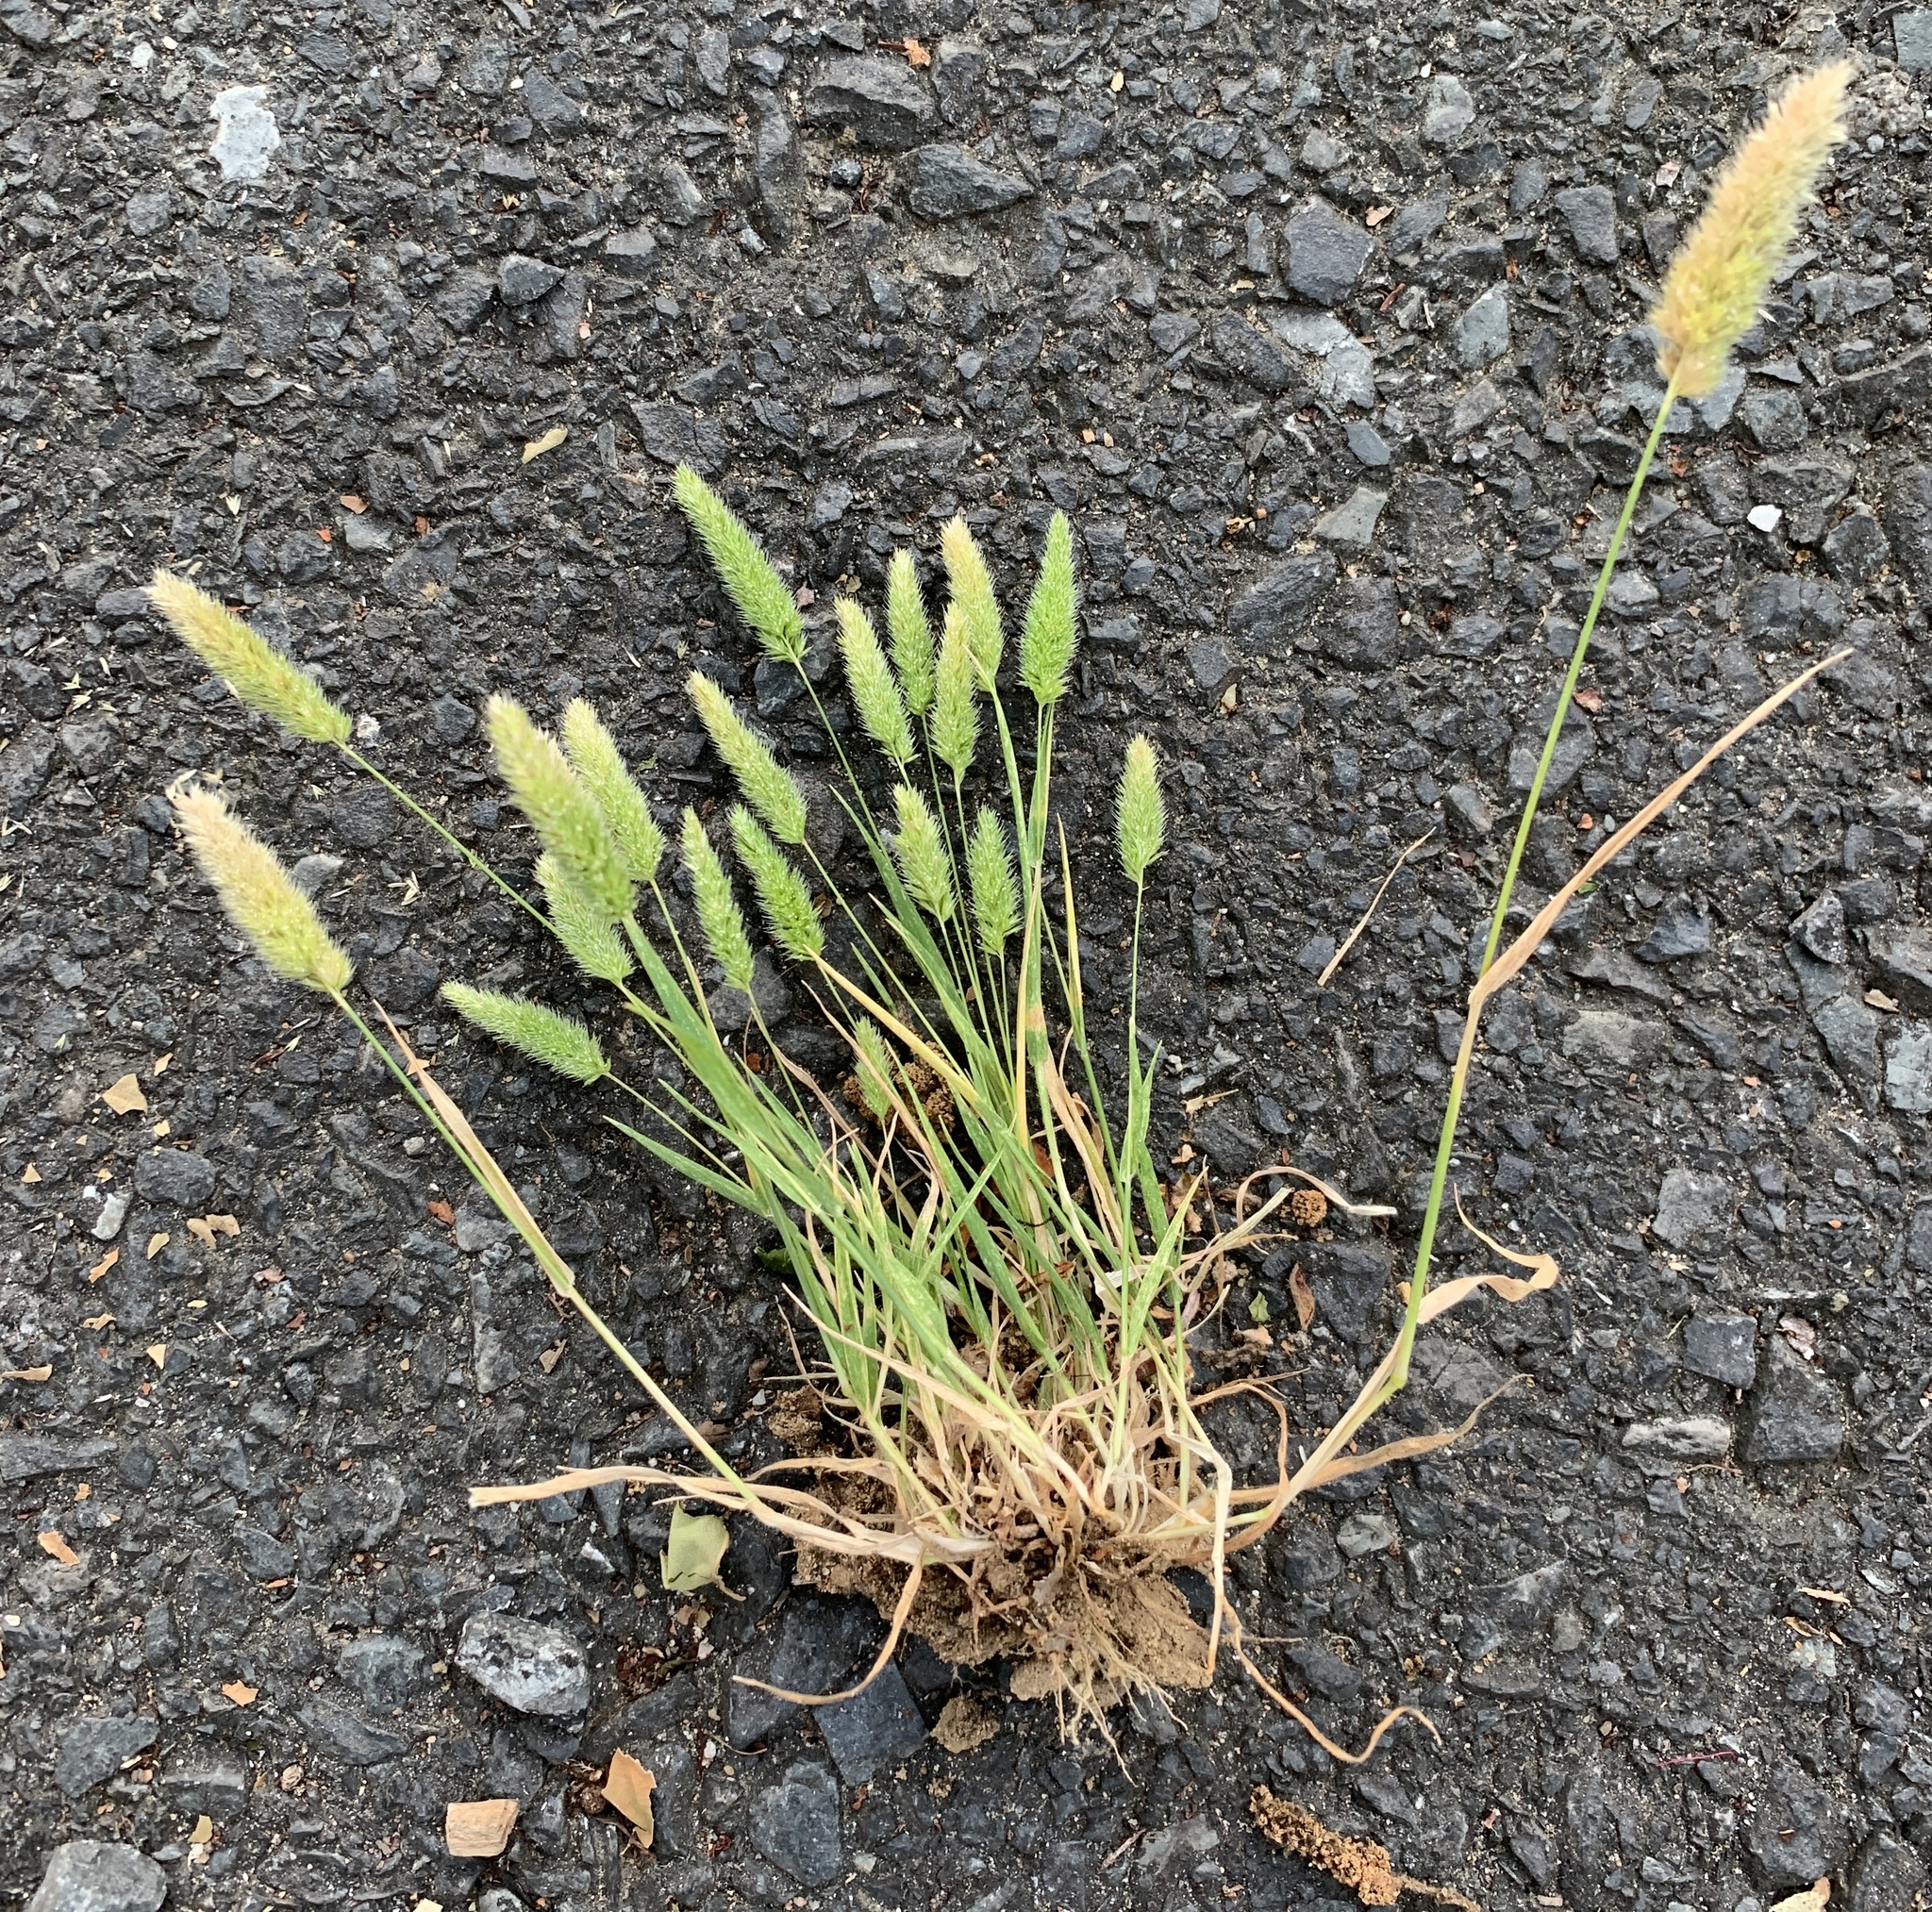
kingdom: Plantae
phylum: Tracheophyta
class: Liliopsida
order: Poales
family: Poaceae
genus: Rostraria
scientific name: Rostraria cristata
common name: Mediterranean hair-grass
